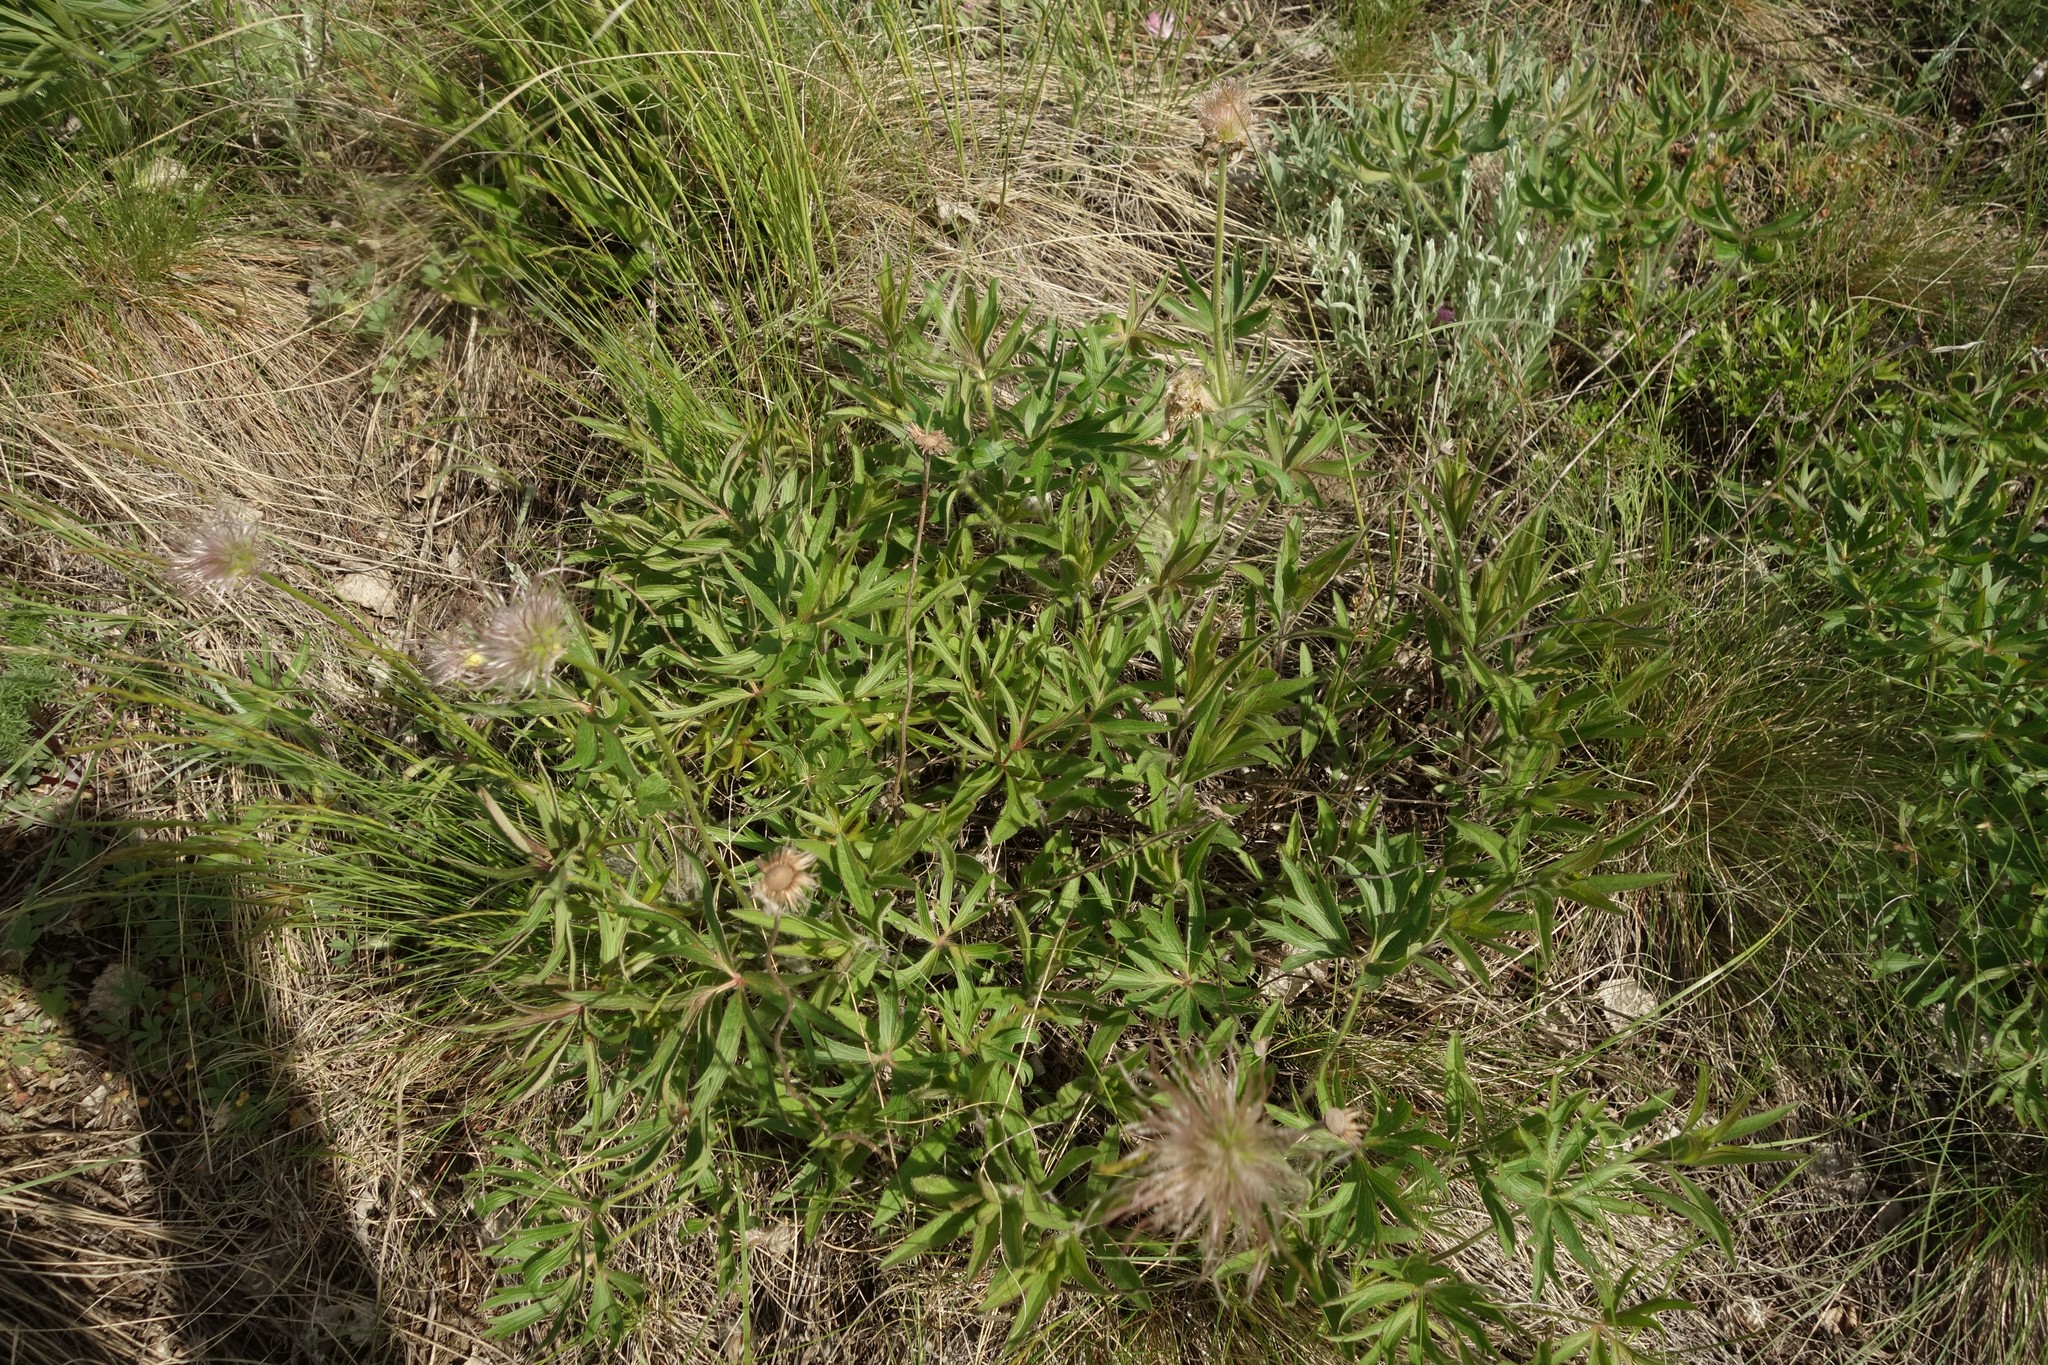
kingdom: Plantae
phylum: Tracheophyta
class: Magnoliopsida
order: Ranunculales
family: Ranunculaceae
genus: Pulsatilla
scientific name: Pulsatilla patens
